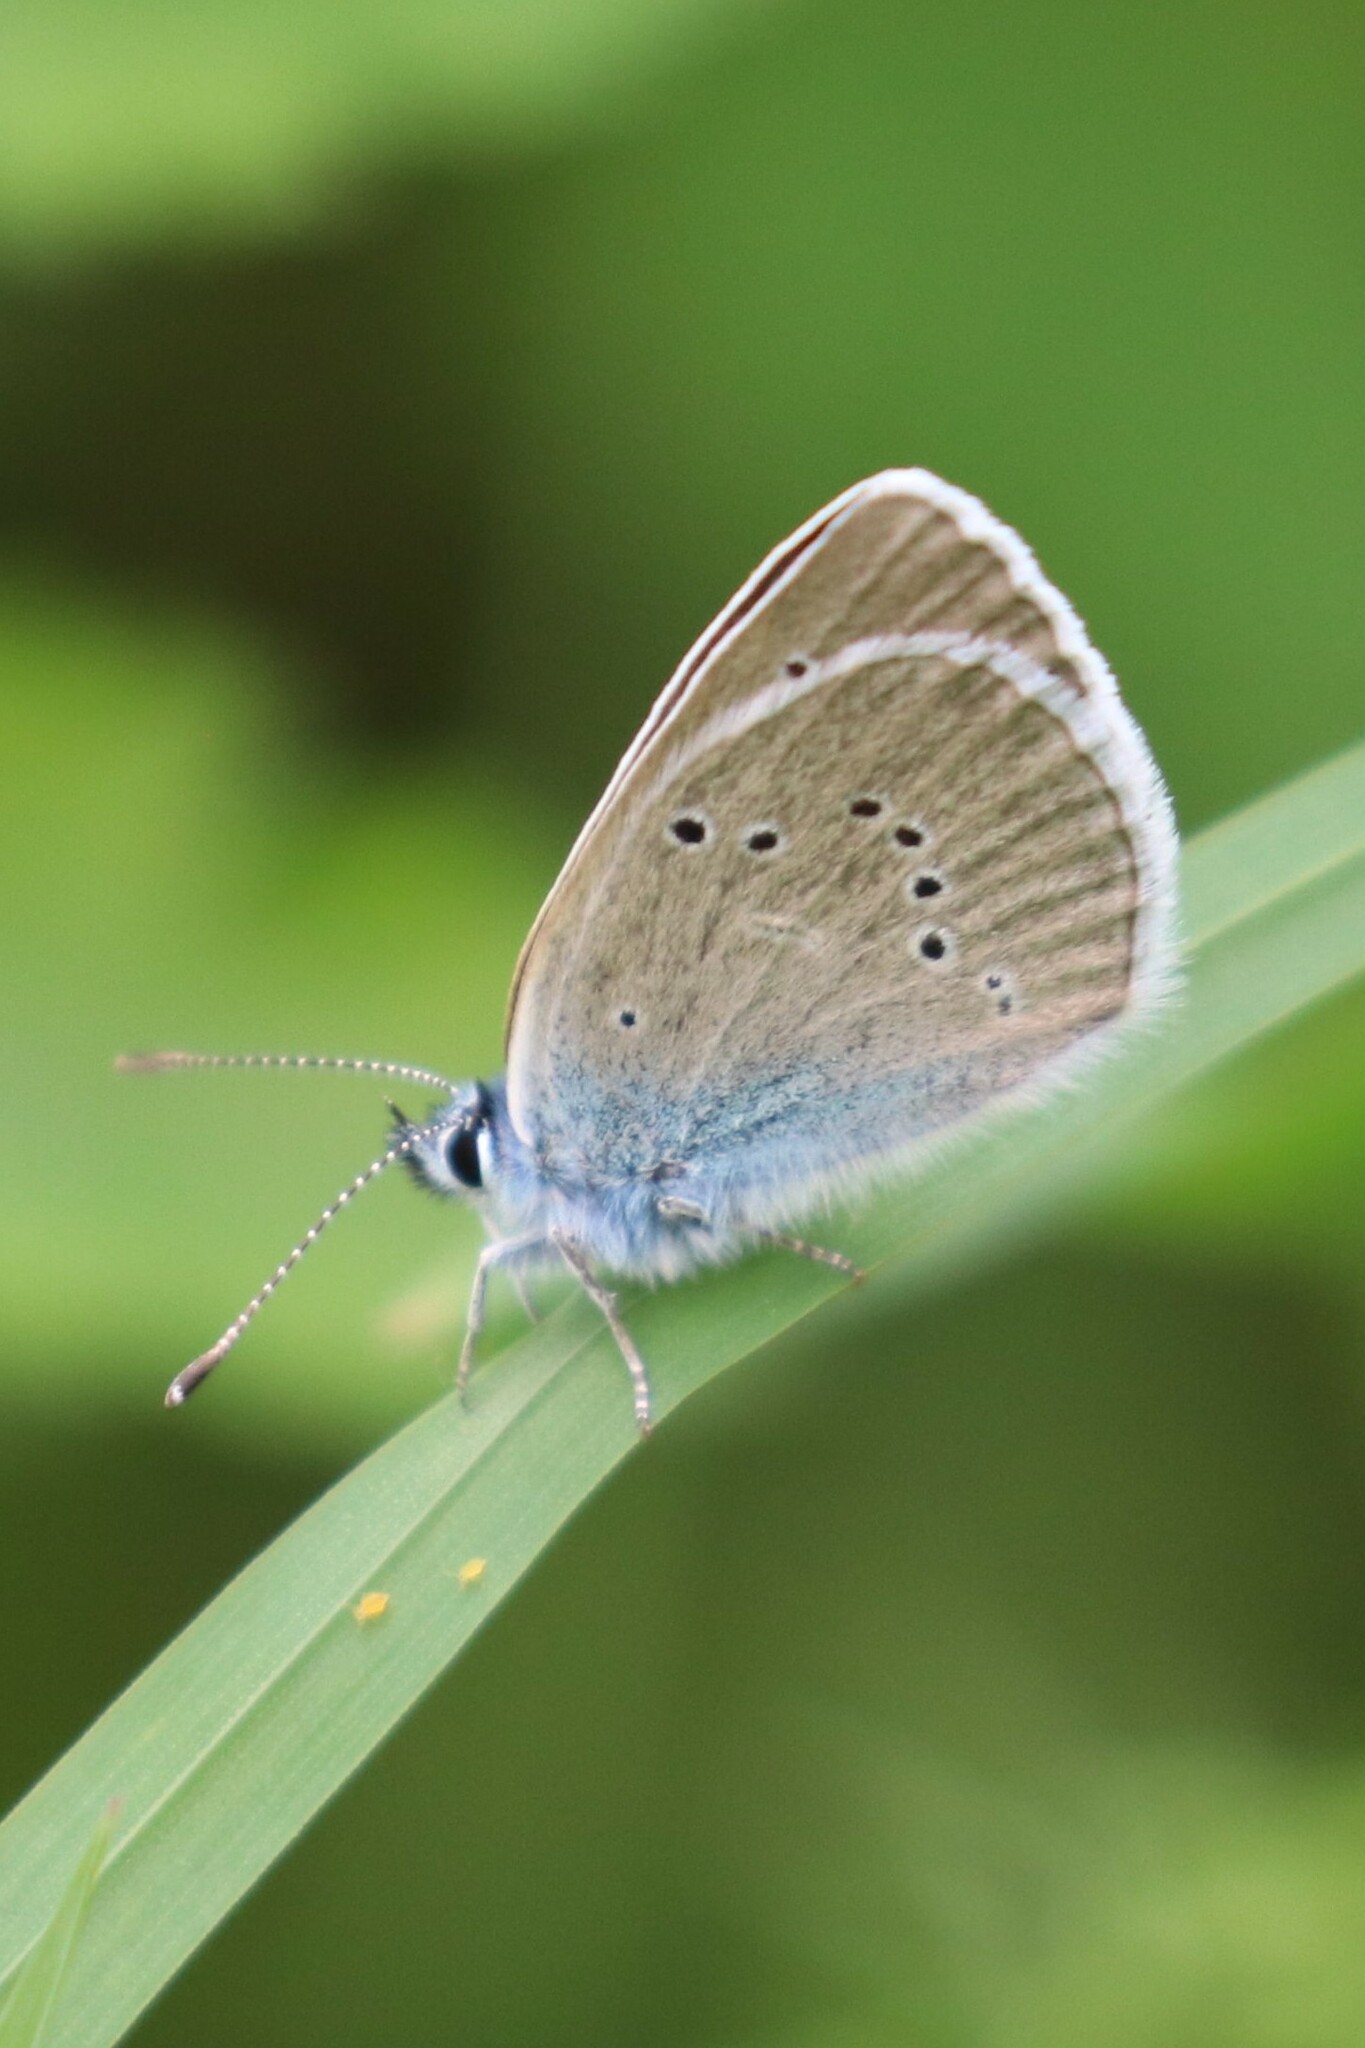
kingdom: Animalia
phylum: Arthropoda
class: Insecta
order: Lepidoptera
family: Lycaenidae
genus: Cyaniris
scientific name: Cyaniris semiargus
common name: Mazarine blue
